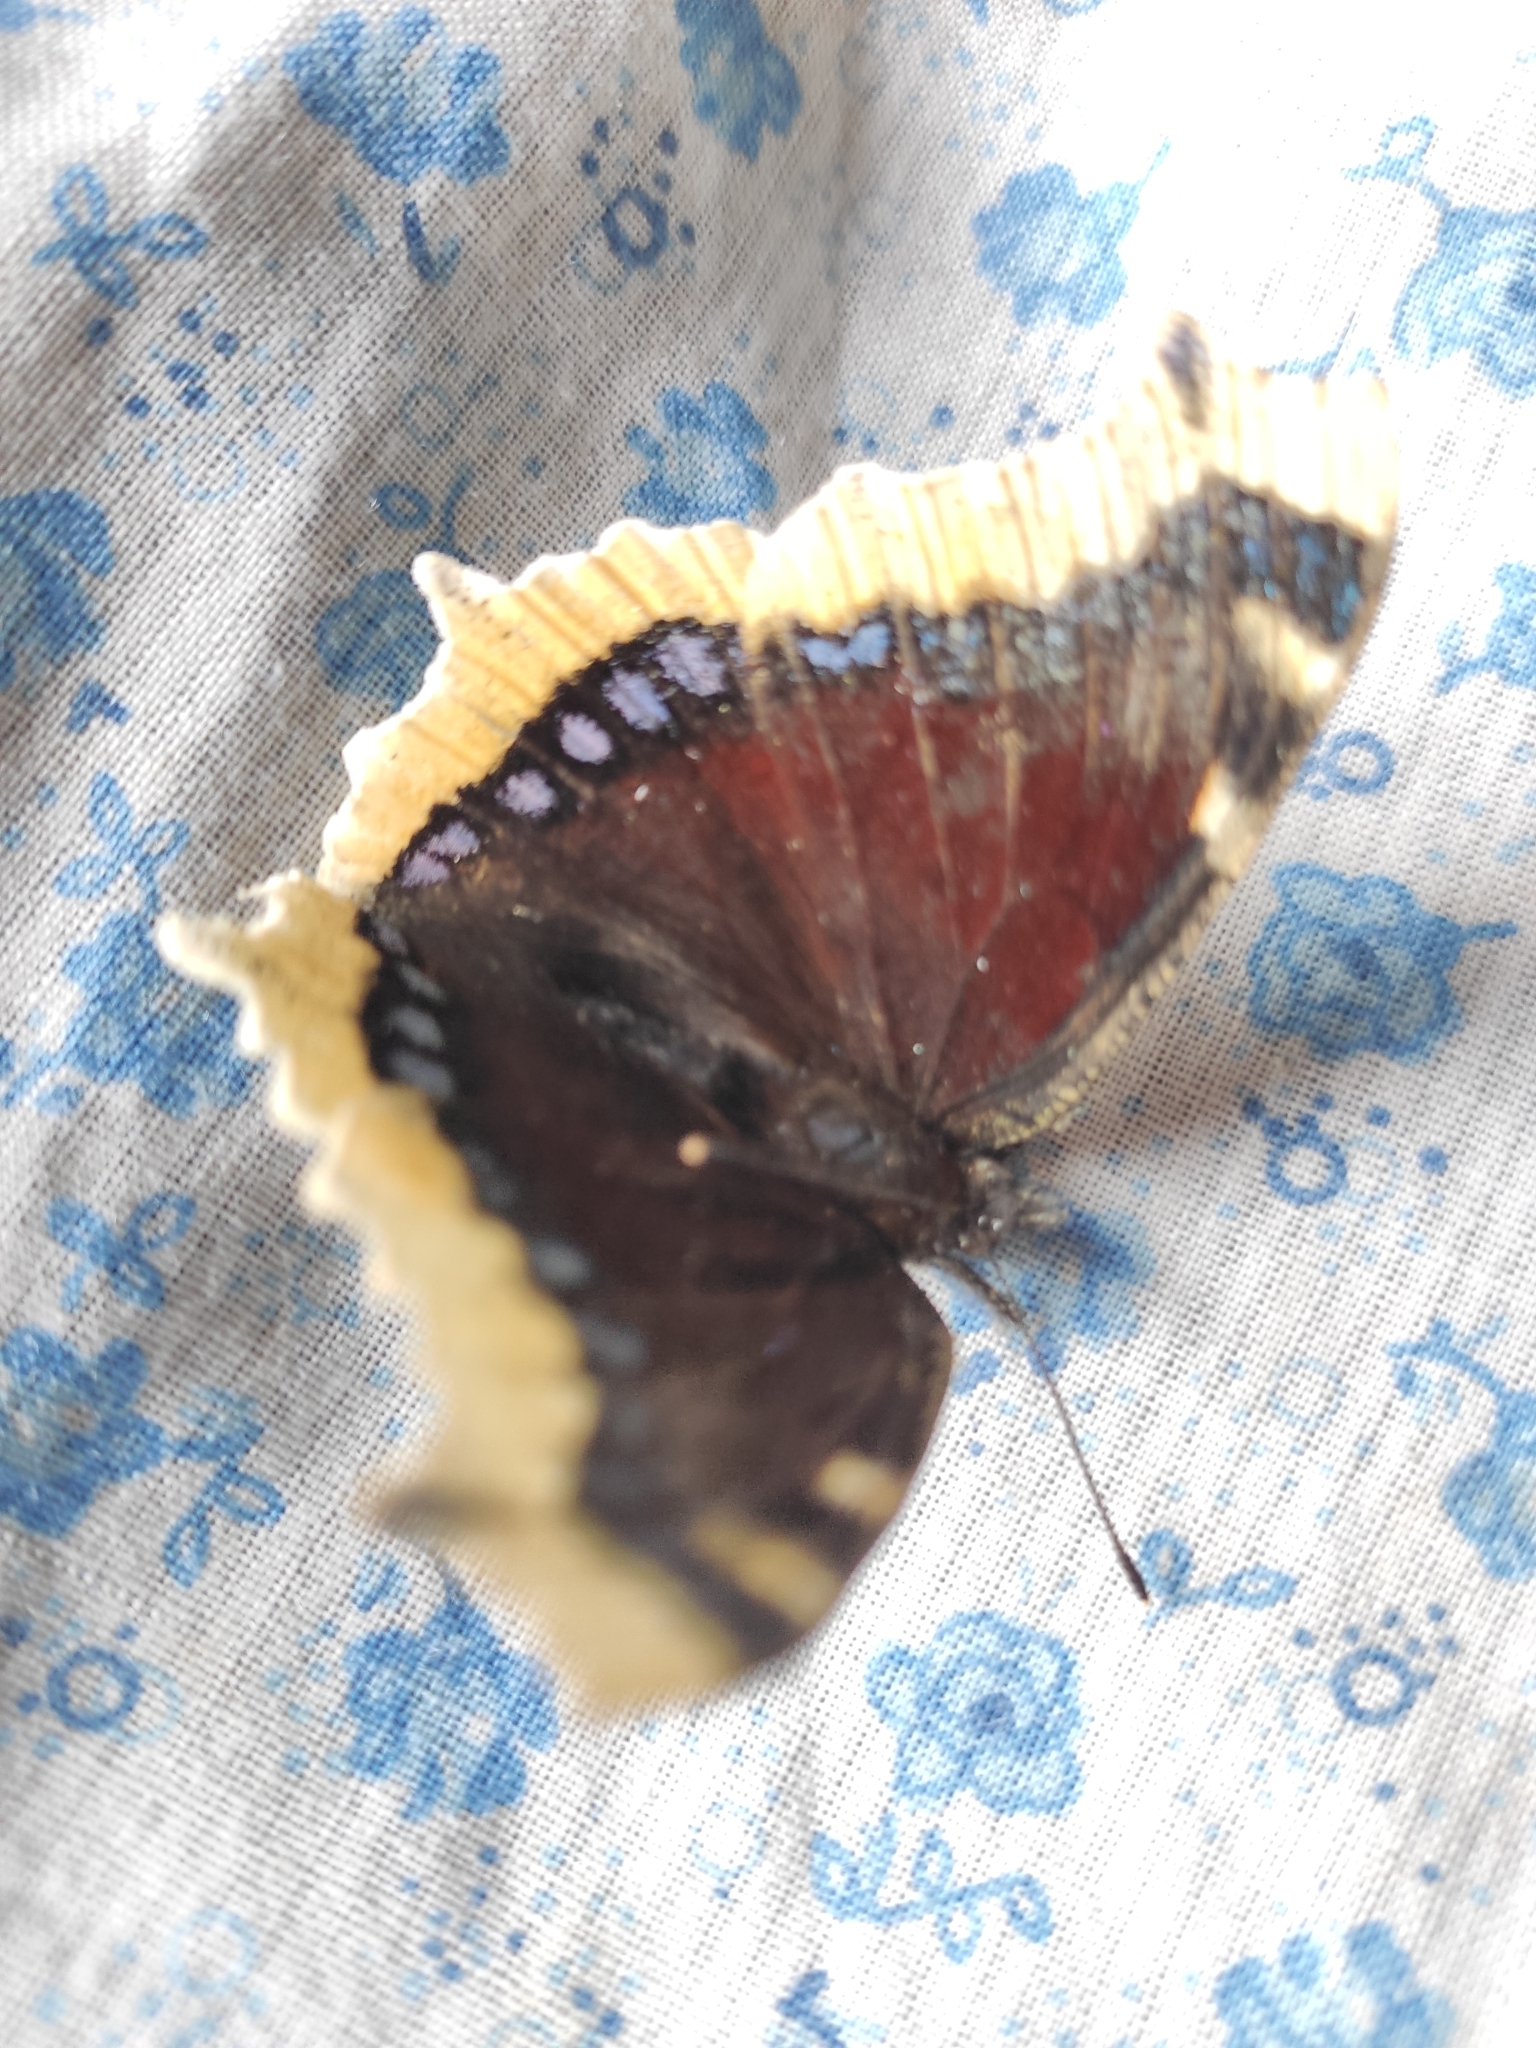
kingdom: Animalia
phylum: Arthropoda
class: Insecta
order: Lepidoptera
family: Nymphalidae
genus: Nymphalis
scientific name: Nymphalis antiopa
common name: Camberwell beauty
